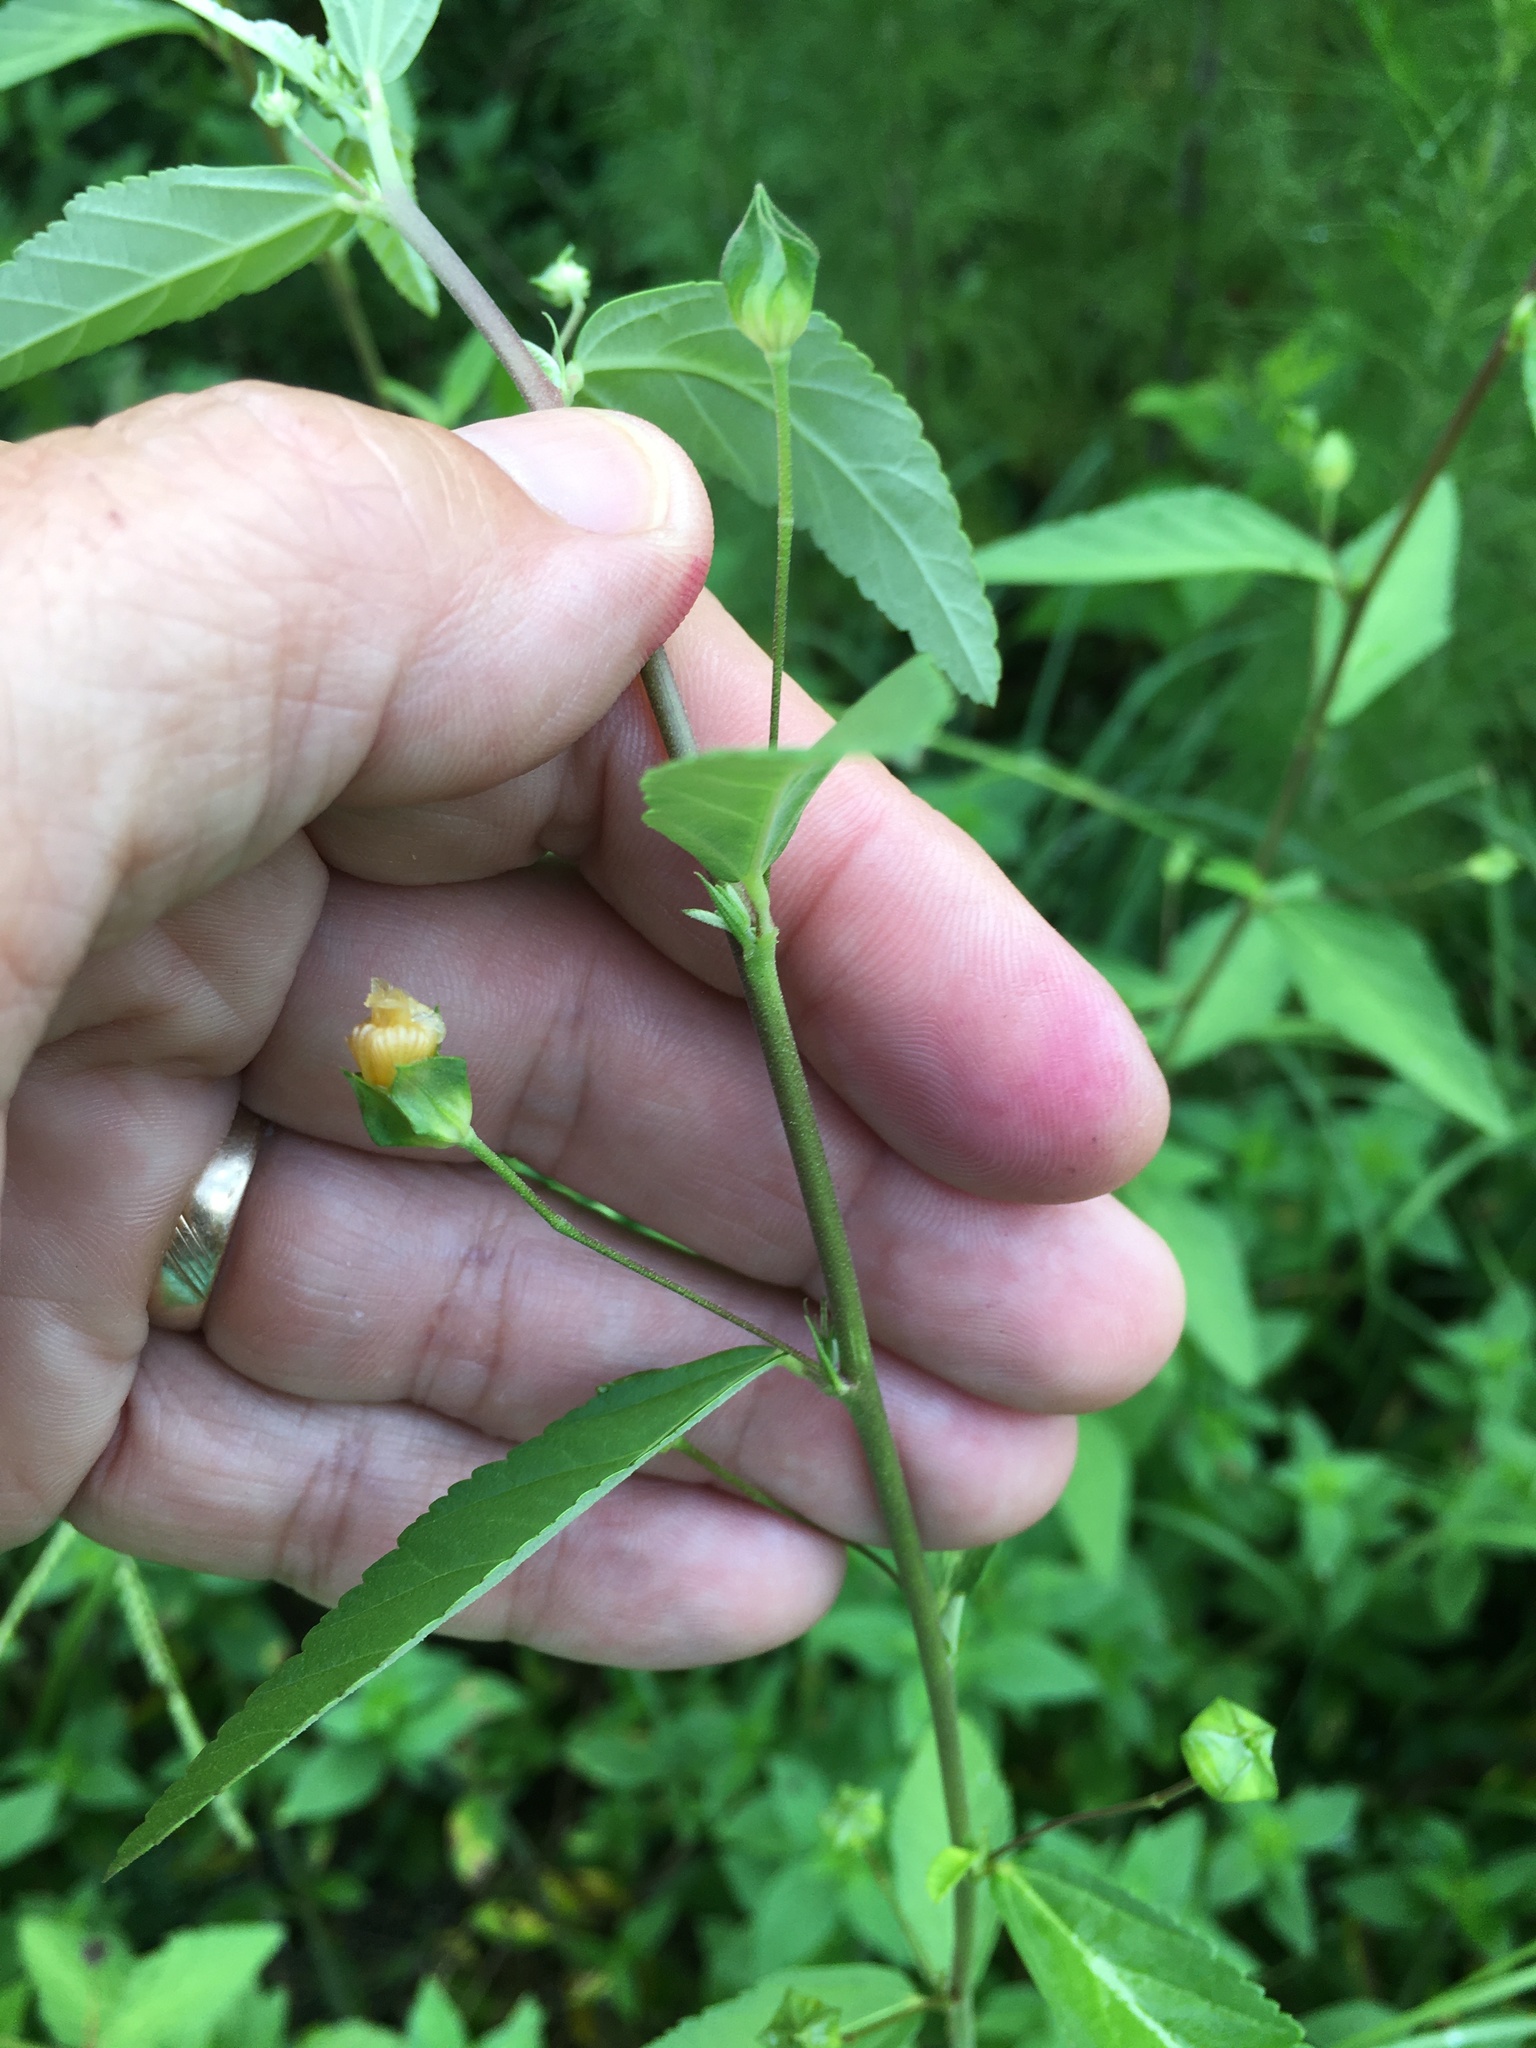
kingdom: Plantae
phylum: Tracheophyta
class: Magnoliopsida
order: Malvales
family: Malvaceae
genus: Sida
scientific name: Sida rhombifolia
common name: Queensland-hemp
